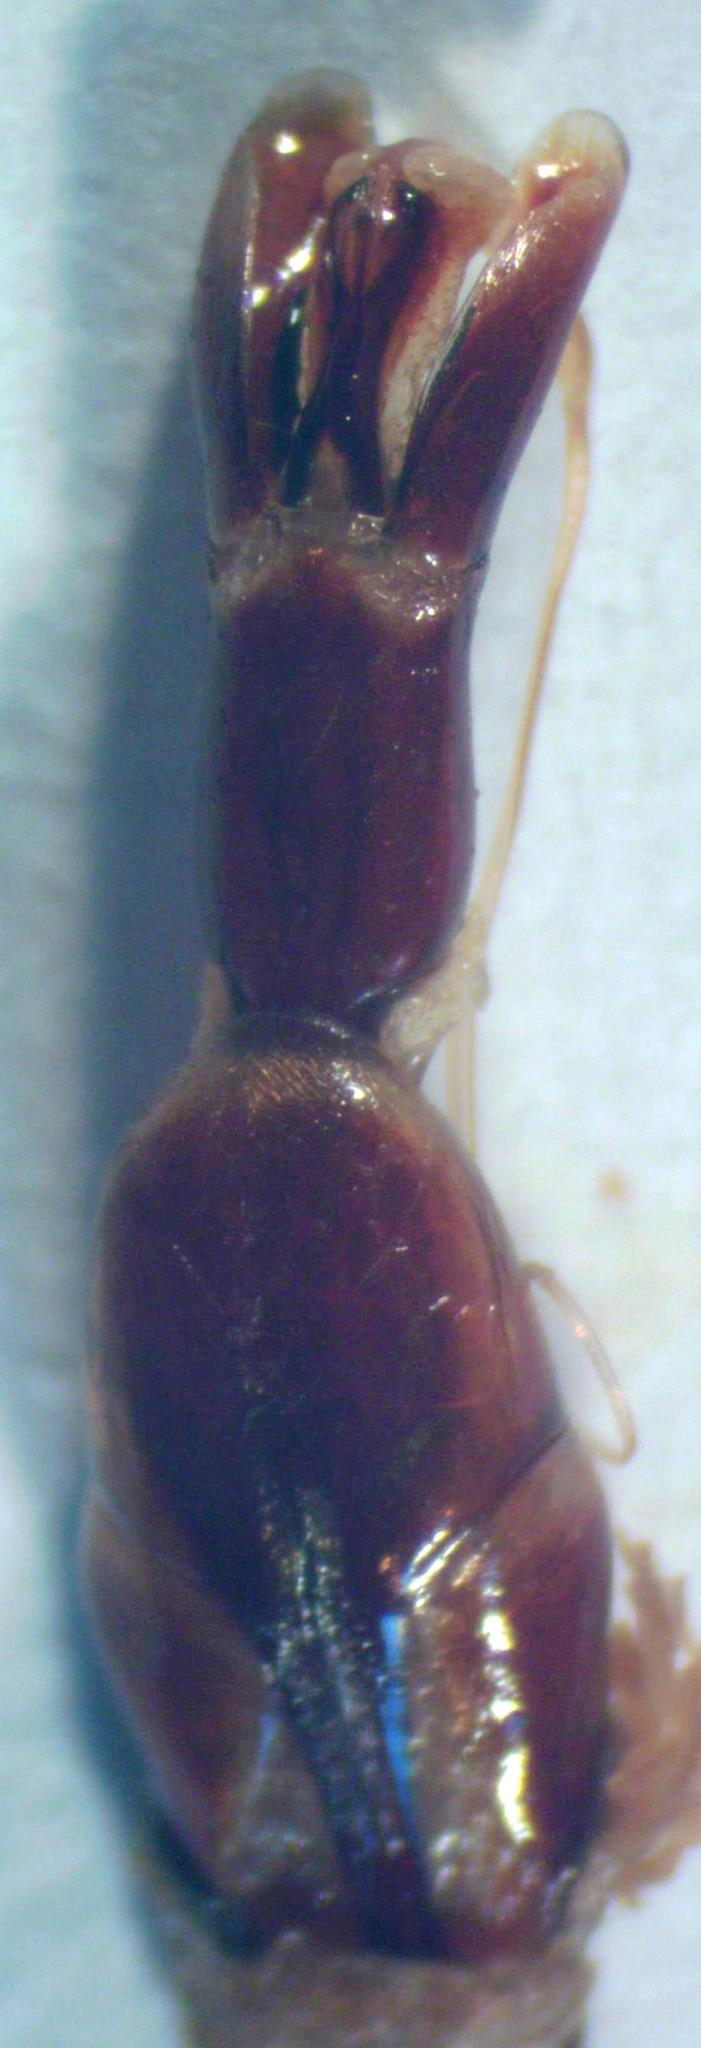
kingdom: Animalia
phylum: Arthropoda
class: Insecta
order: Coleoptera
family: Lucanidae
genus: Dorcus
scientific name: Dorcus daedalion
